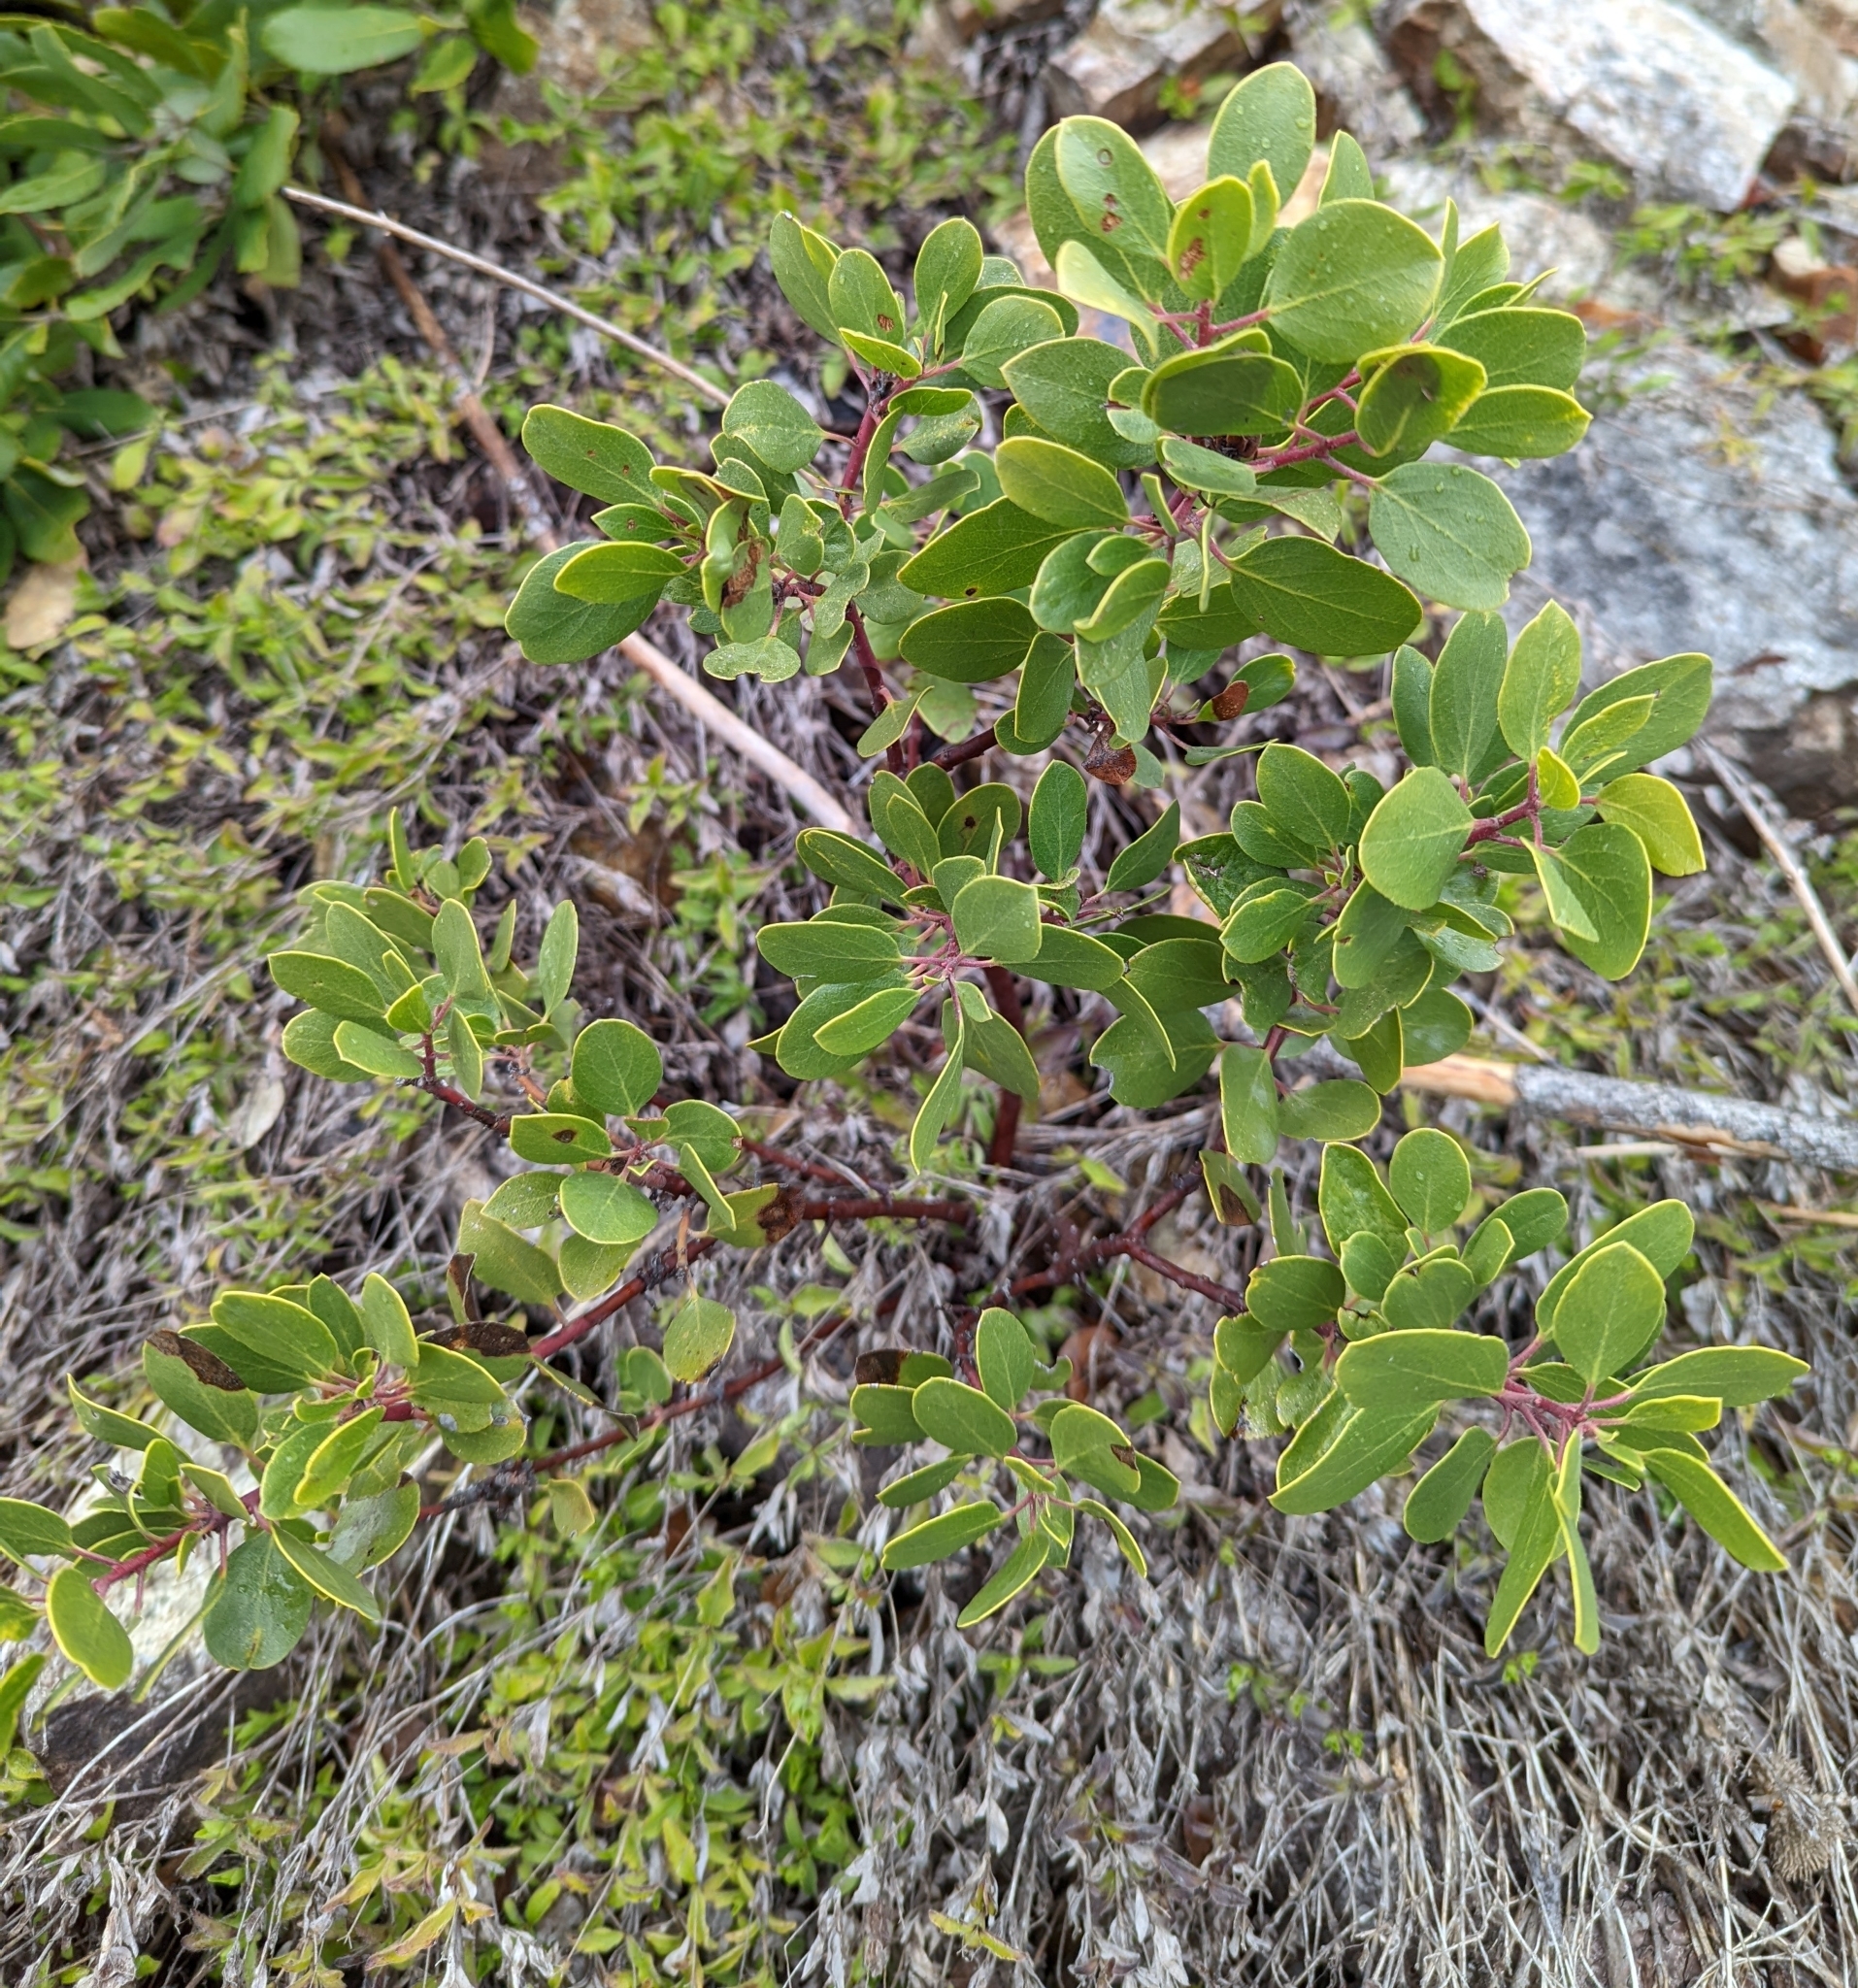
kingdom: Plantae
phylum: Tracheophyta
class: Magnoliopsida
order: Ericales
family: Ericaceae
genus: Arctostaphylos
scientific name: Arctostaphylos patula
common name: Green-leaf manzanita
